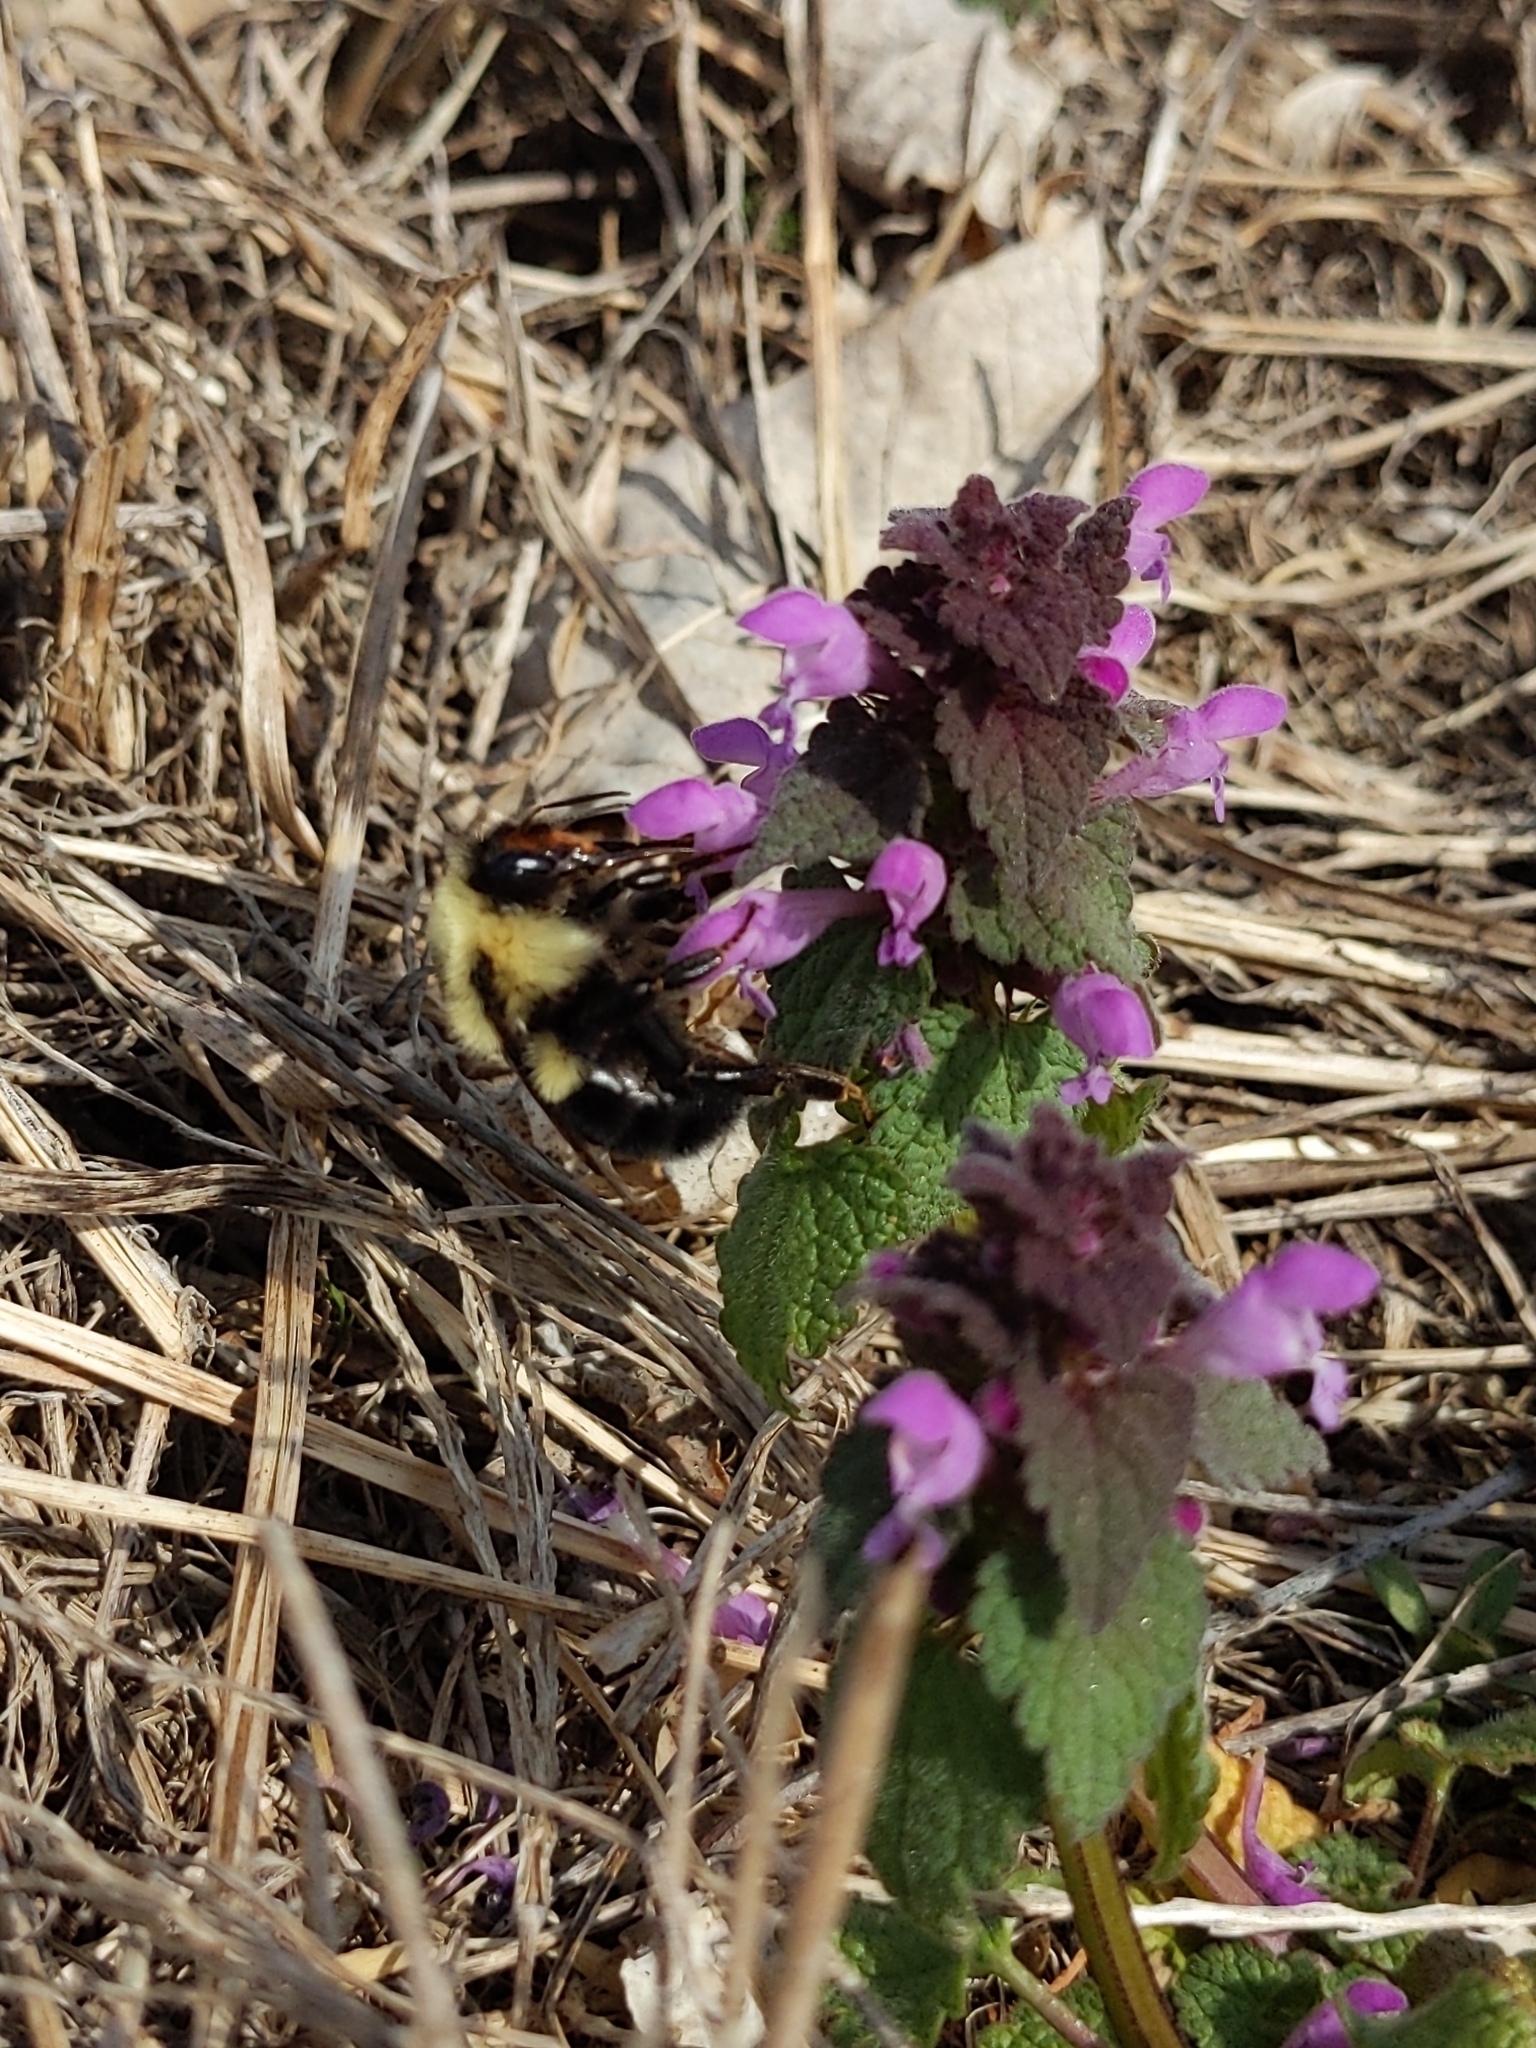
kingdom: Animalia
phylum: Arthropoda
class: Insecta
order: Hymenoptera
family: Apidae
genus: Bombus
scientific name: Bombus bimaculatus
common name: Two-spotted bumble bee
